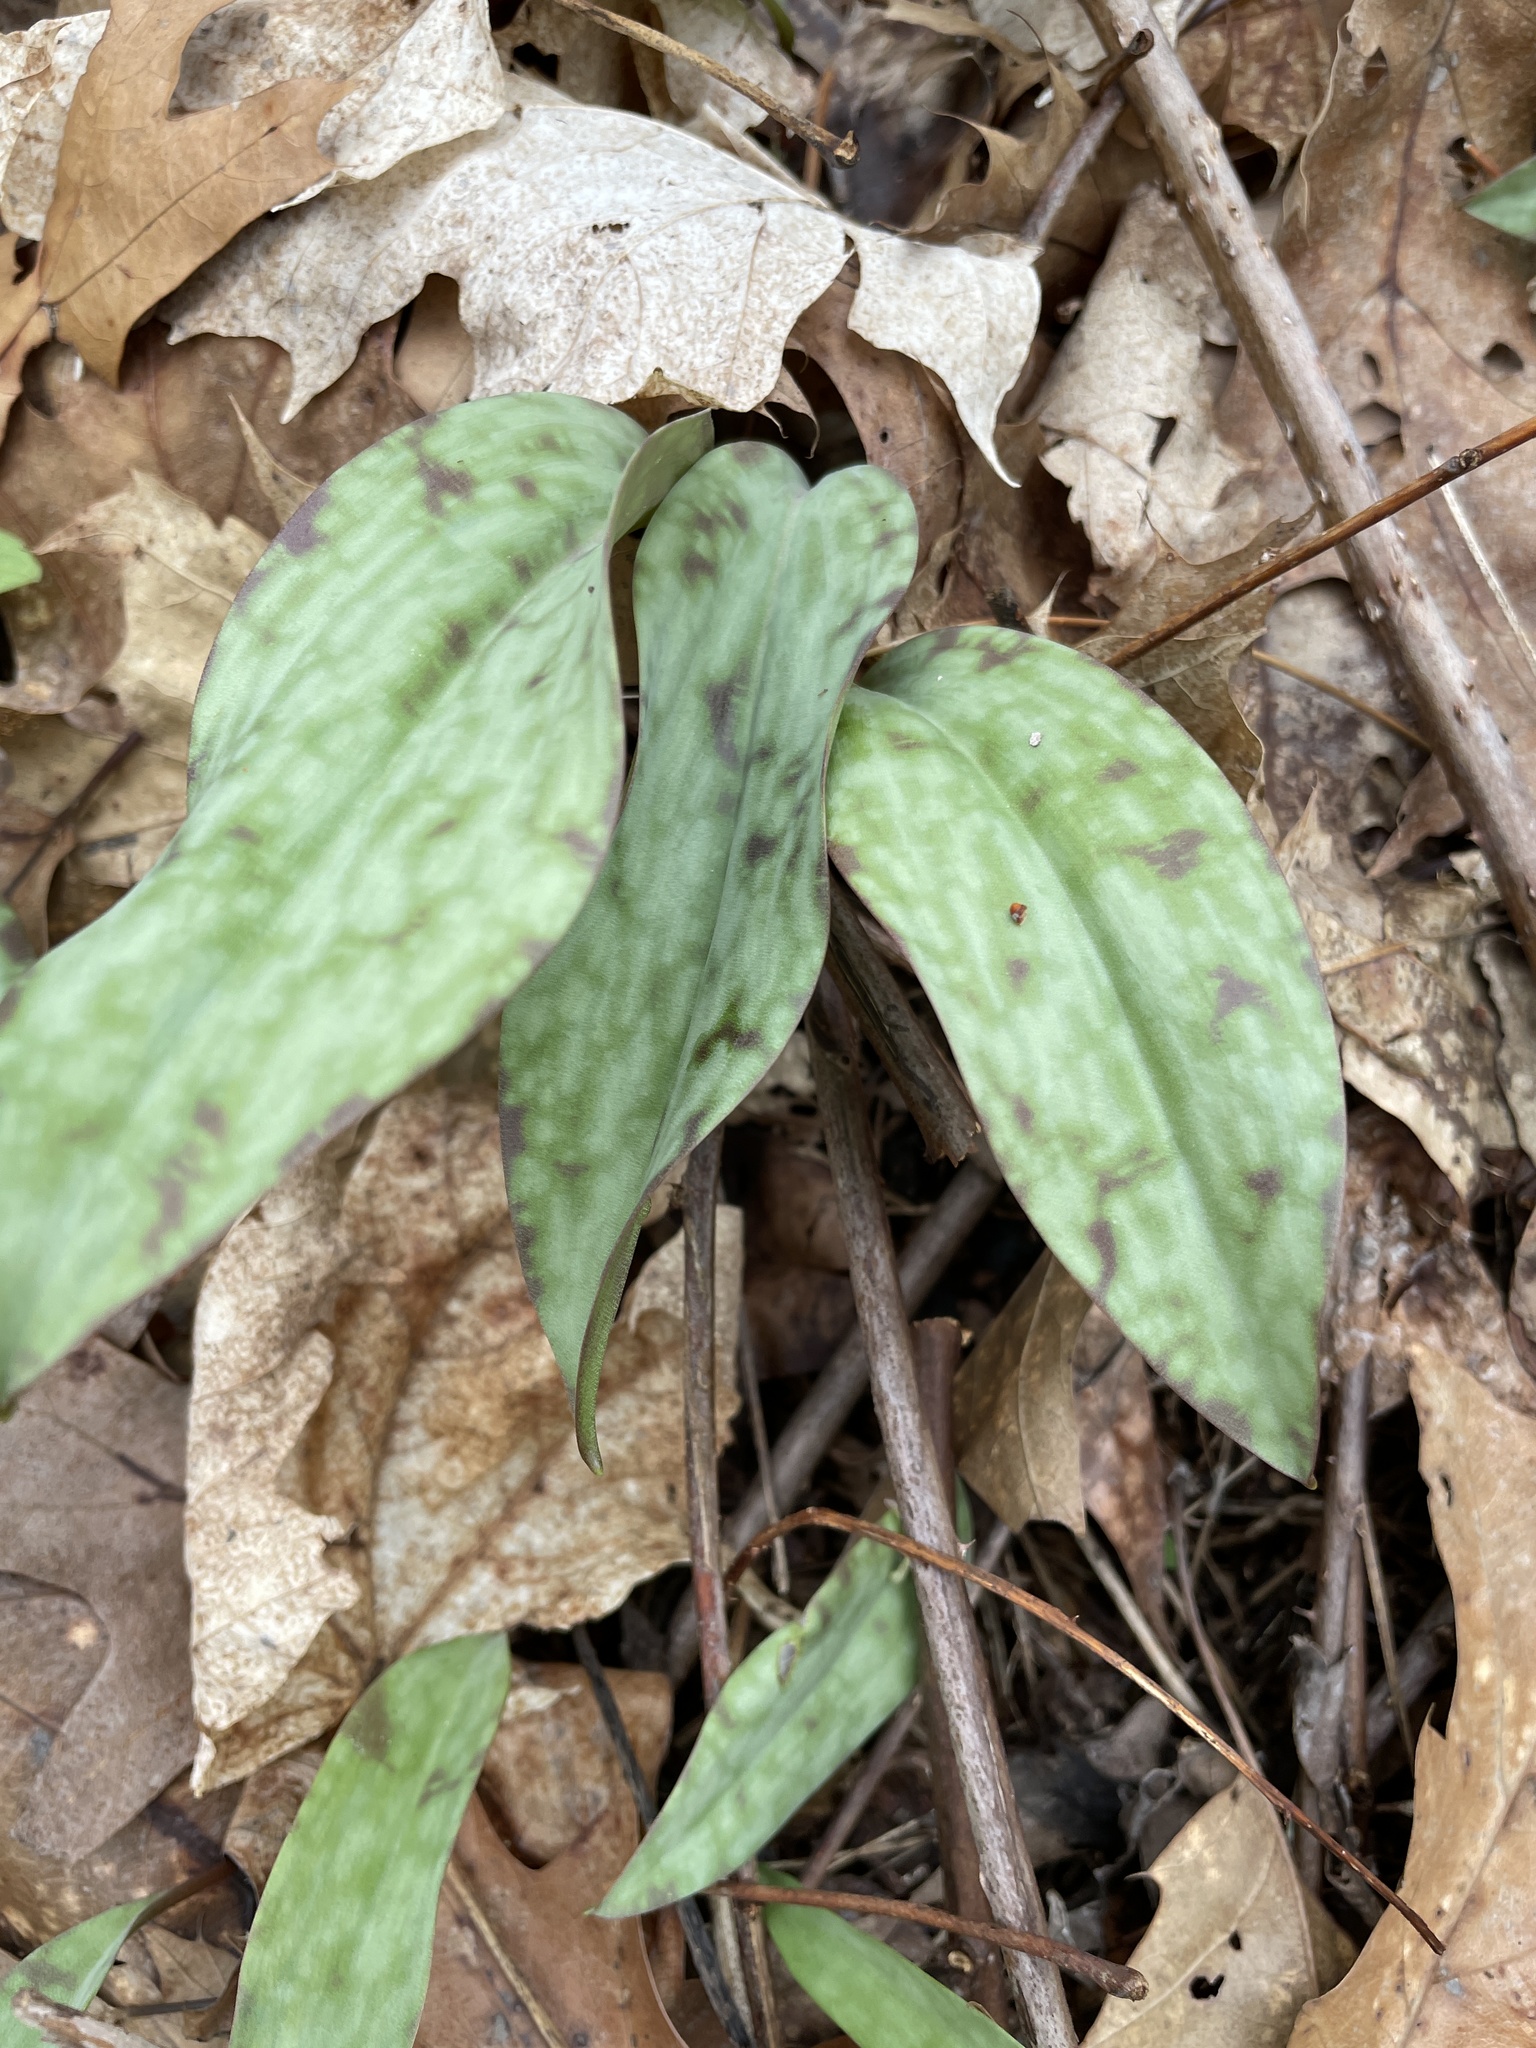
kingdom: Plantae
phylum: Tracheophyta
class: Liliopsida
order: Liliales
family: Liliaceae
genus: Erythronium
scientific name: Erythronium americanum
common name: Yellow adder's-tongue
